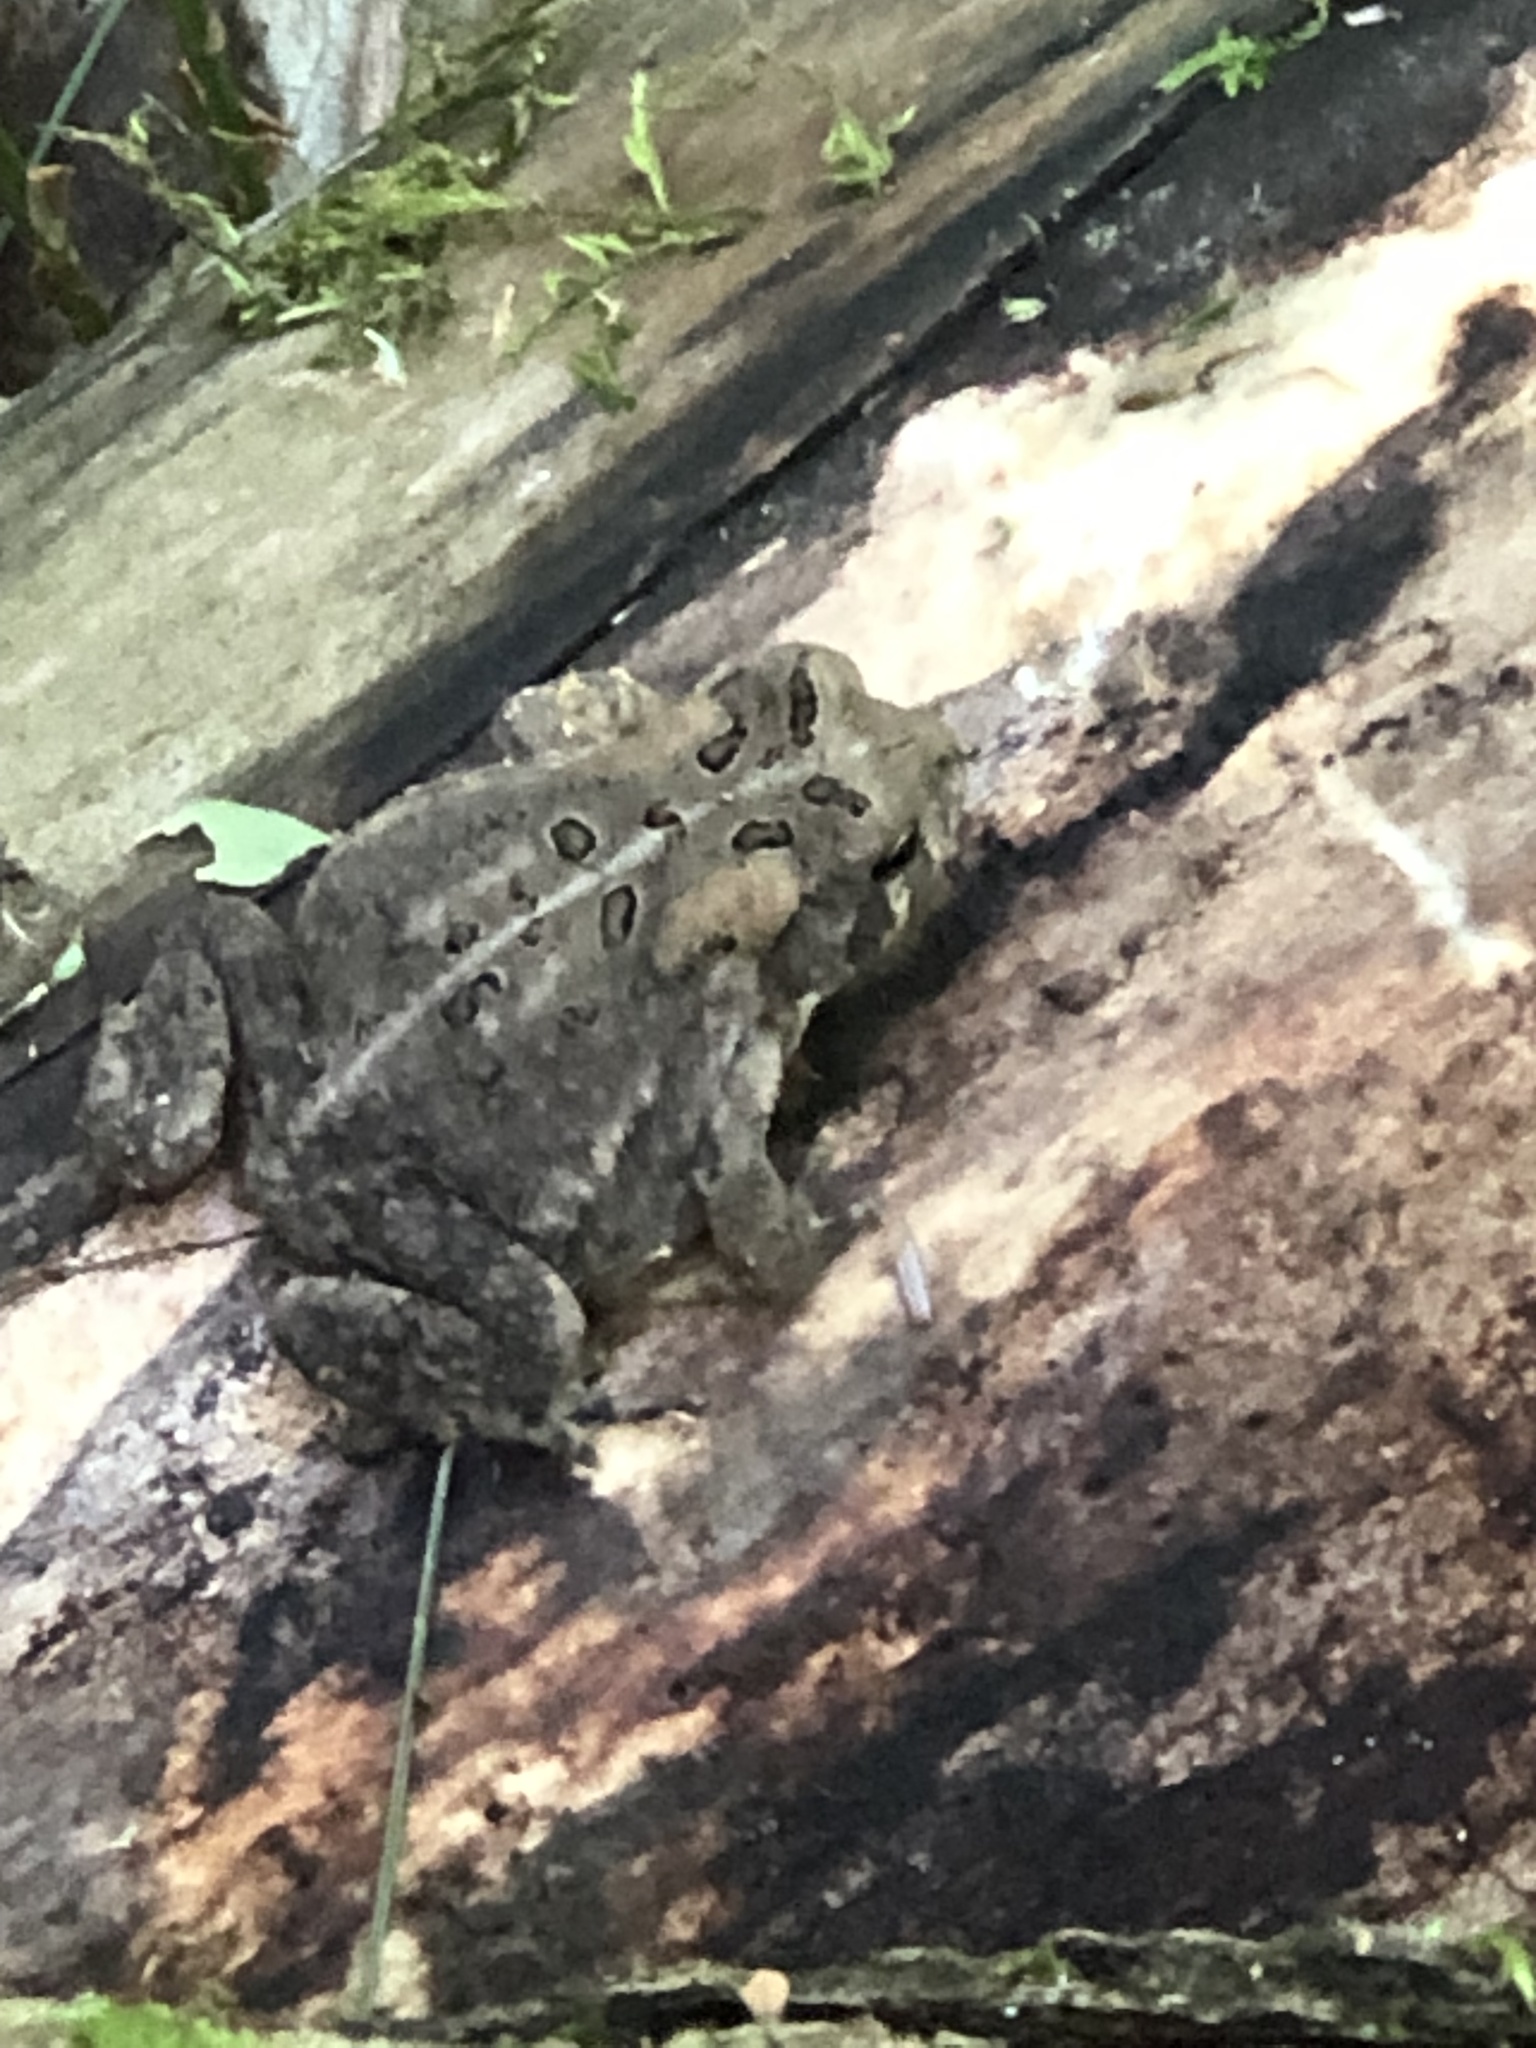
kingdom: Animalia
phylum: Chordata
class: Amphibia
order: Anura
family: Bufonidae
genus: Anaxyrus
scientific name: Anaxyrus americanus
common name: American toad
